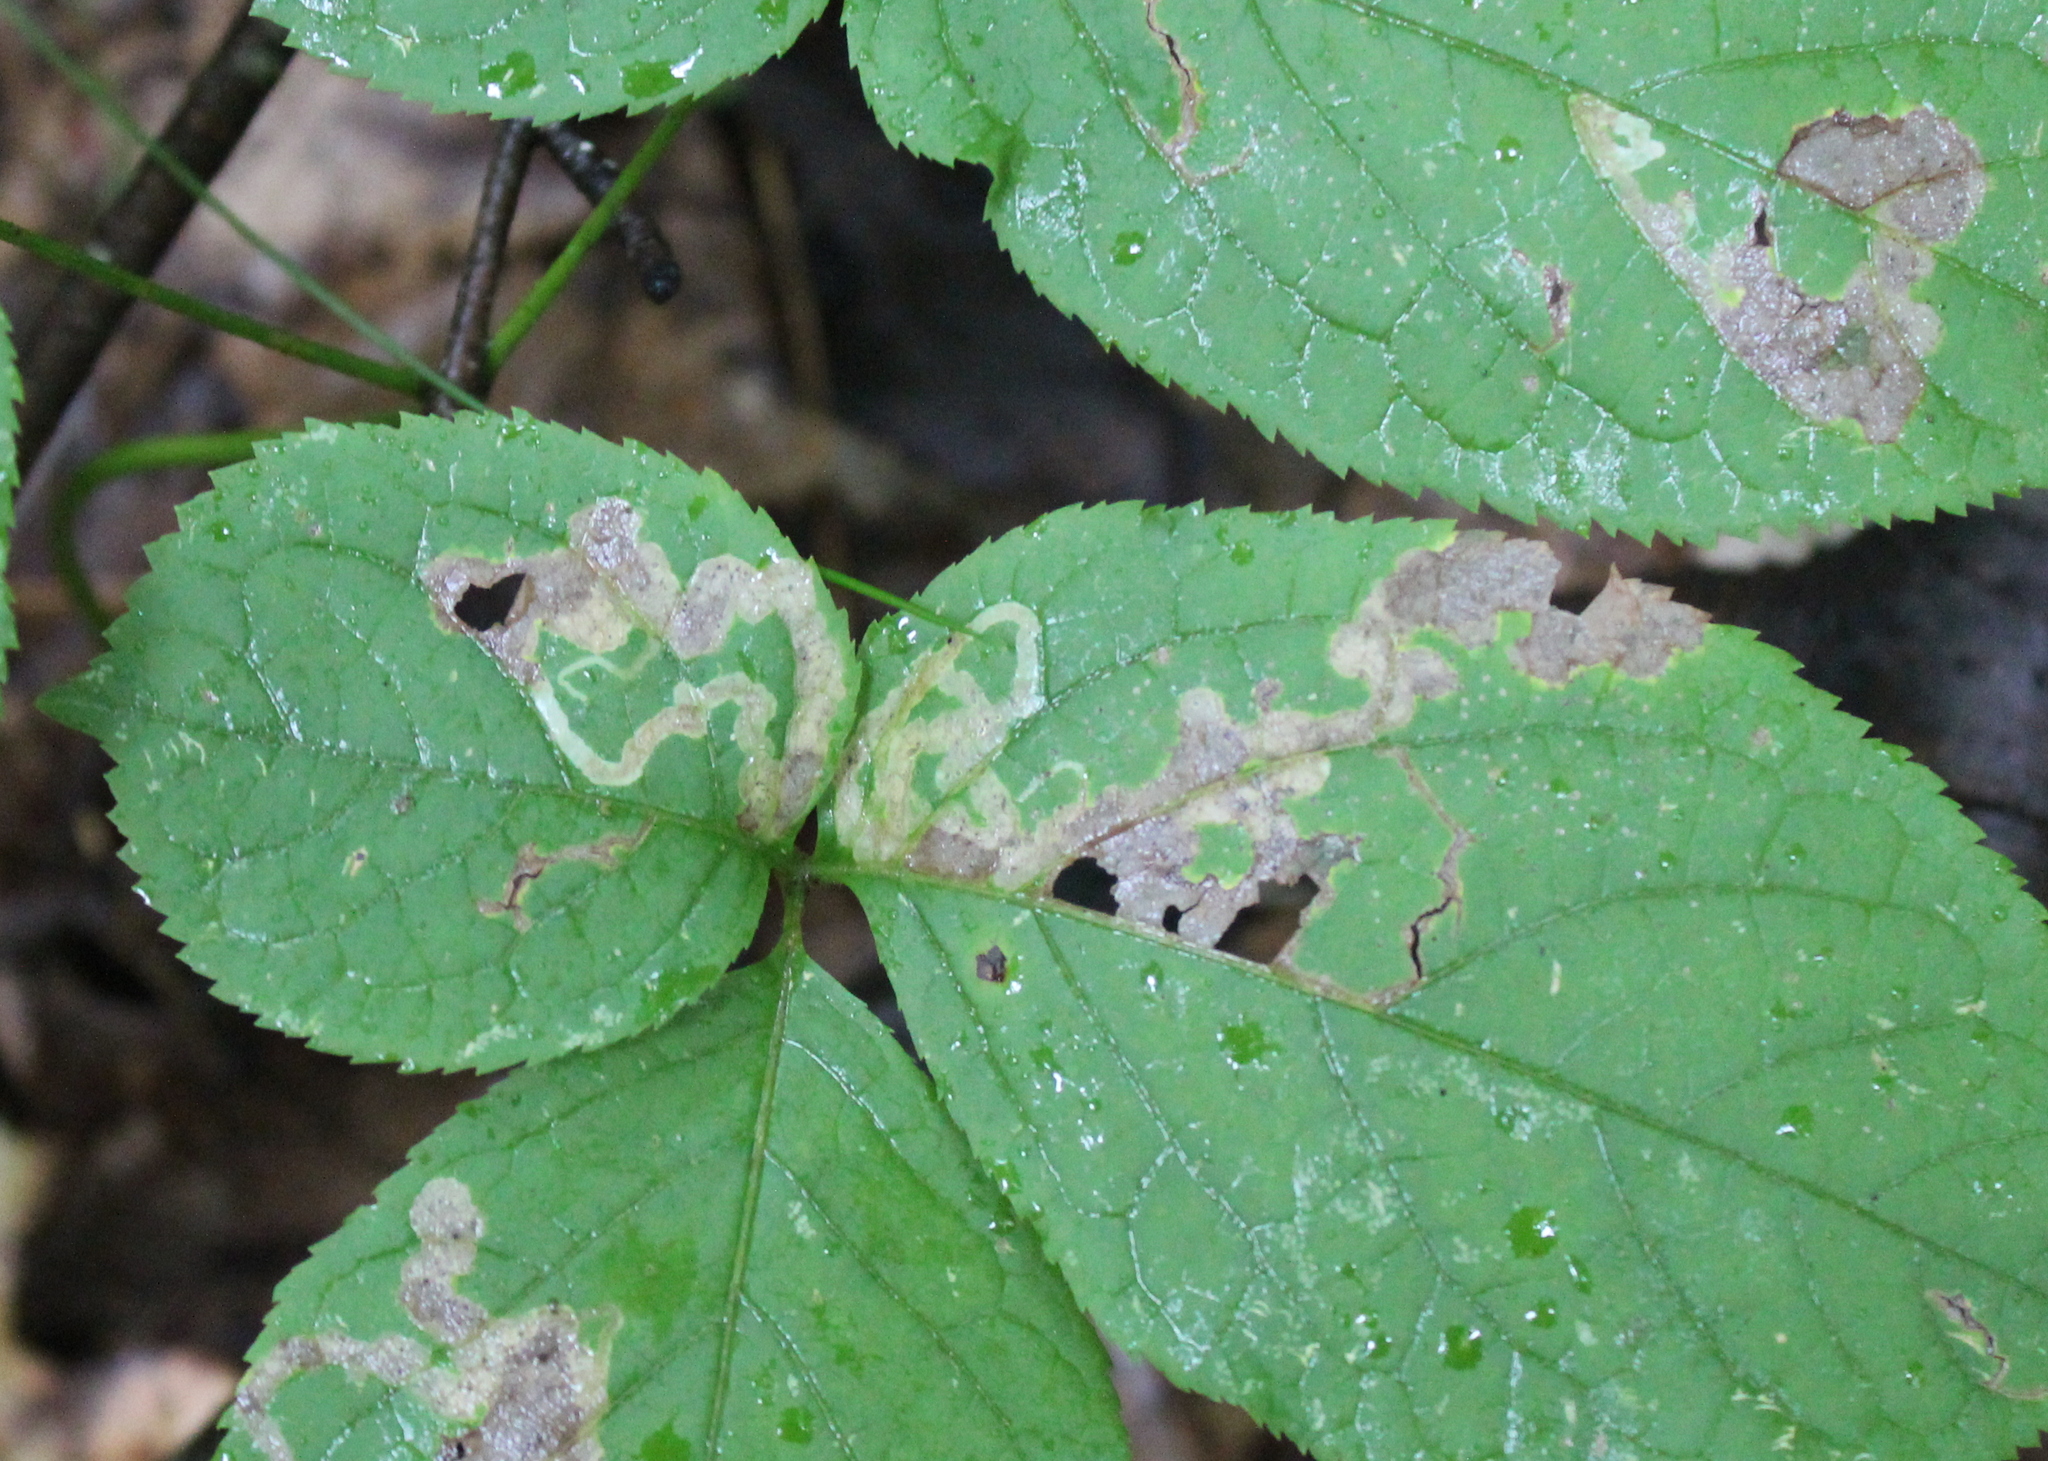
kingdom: Animalia
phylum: Arthropoda
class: Insecta
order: Diptera
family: Agromyzidae
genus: Phytomyza
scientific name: Phytomyza aralivora
